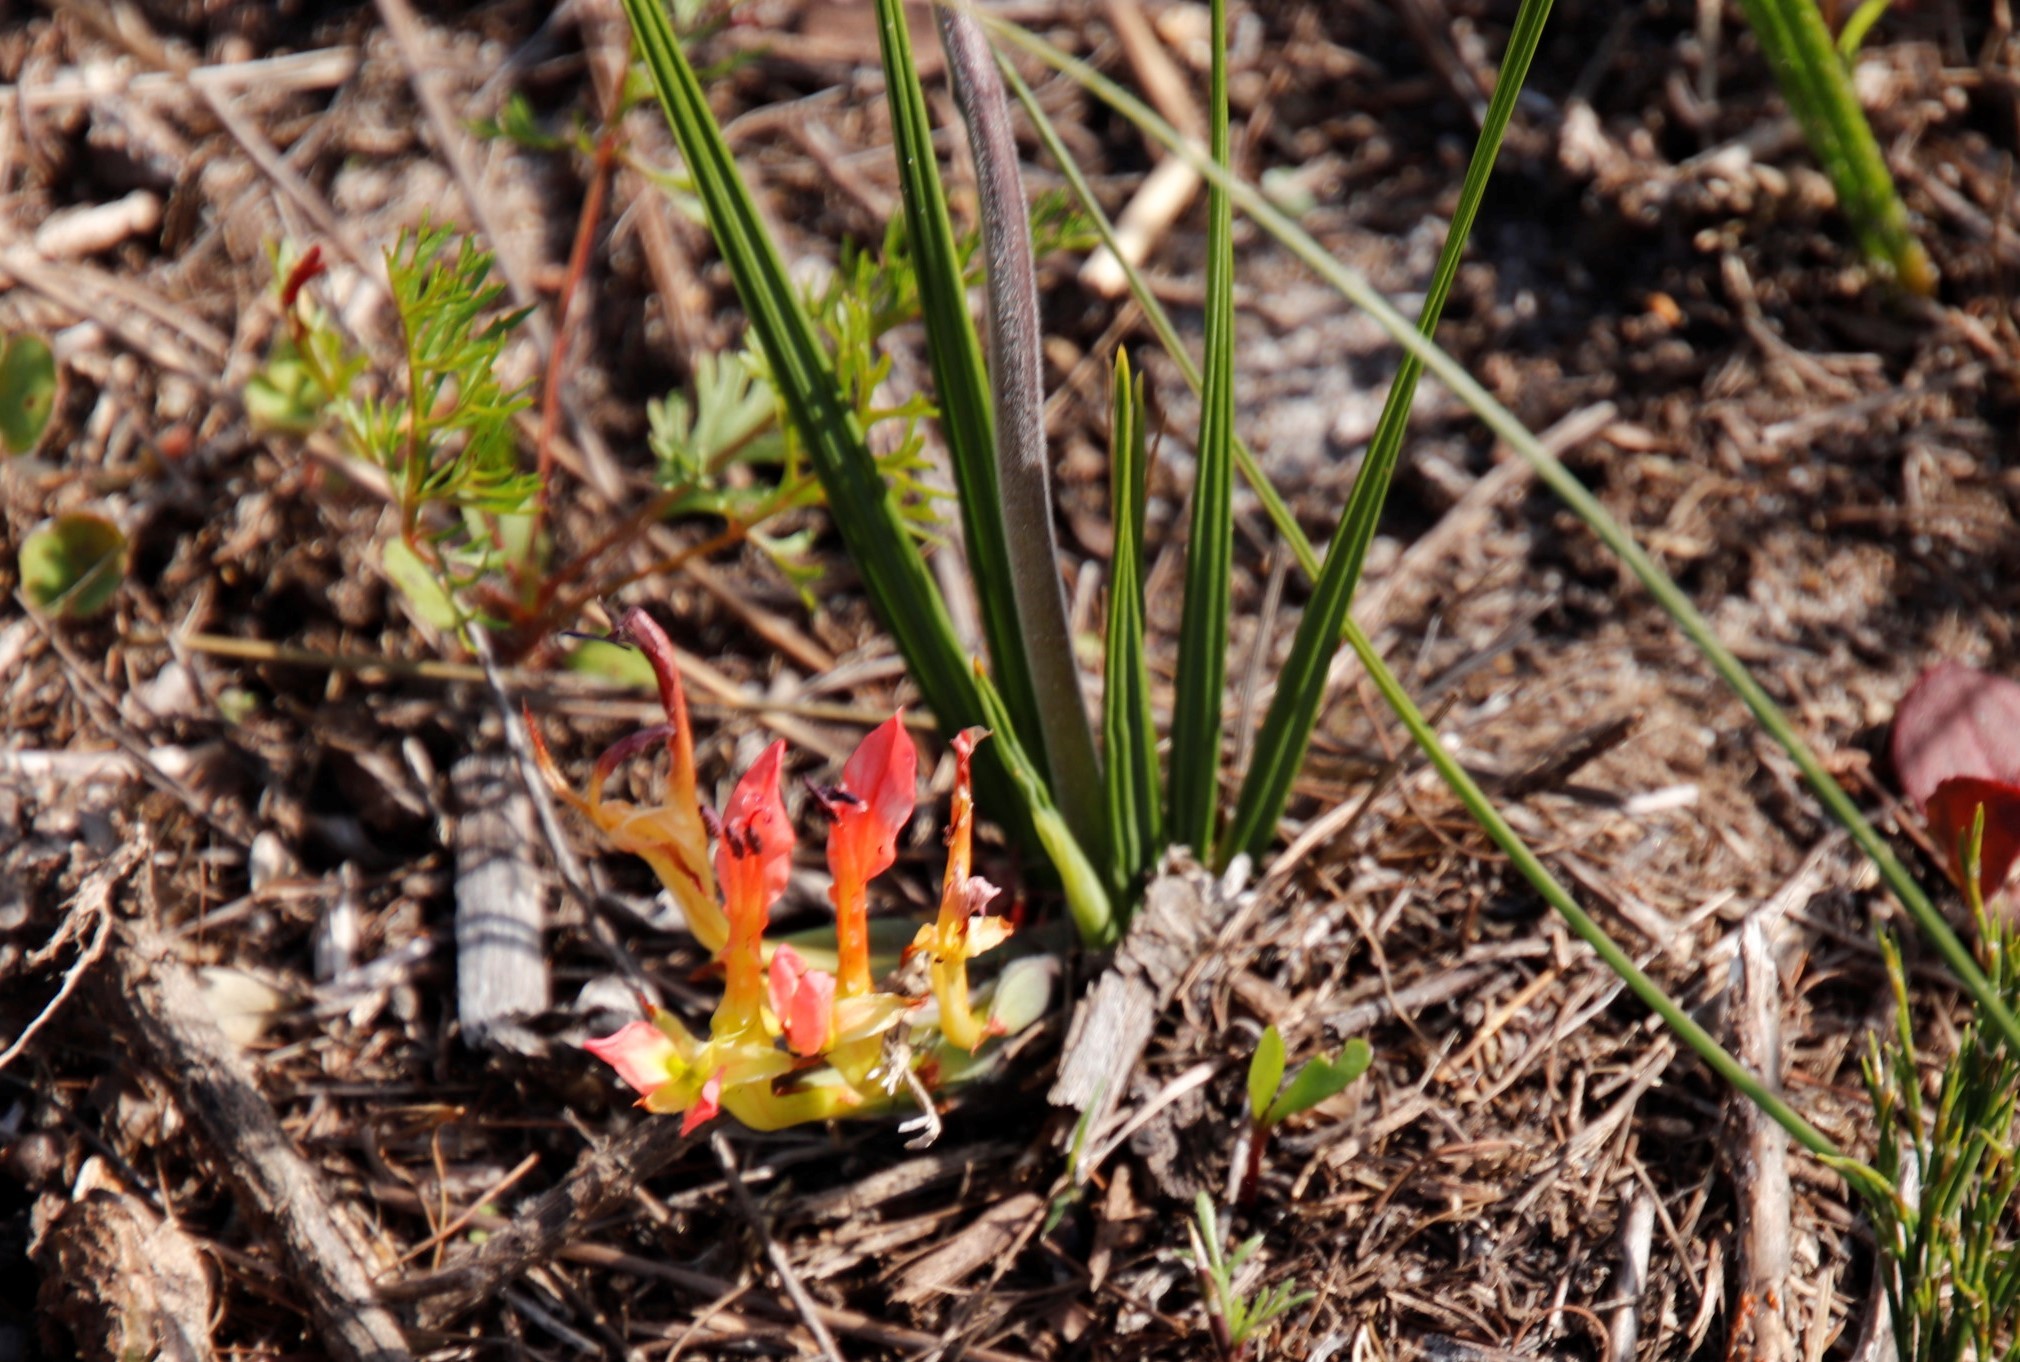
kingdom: Plantae
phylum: Tracheophyta
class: Liliopsida
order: Asparagales
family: Iridaceae
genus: Babiana
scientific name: Babiana ringens
